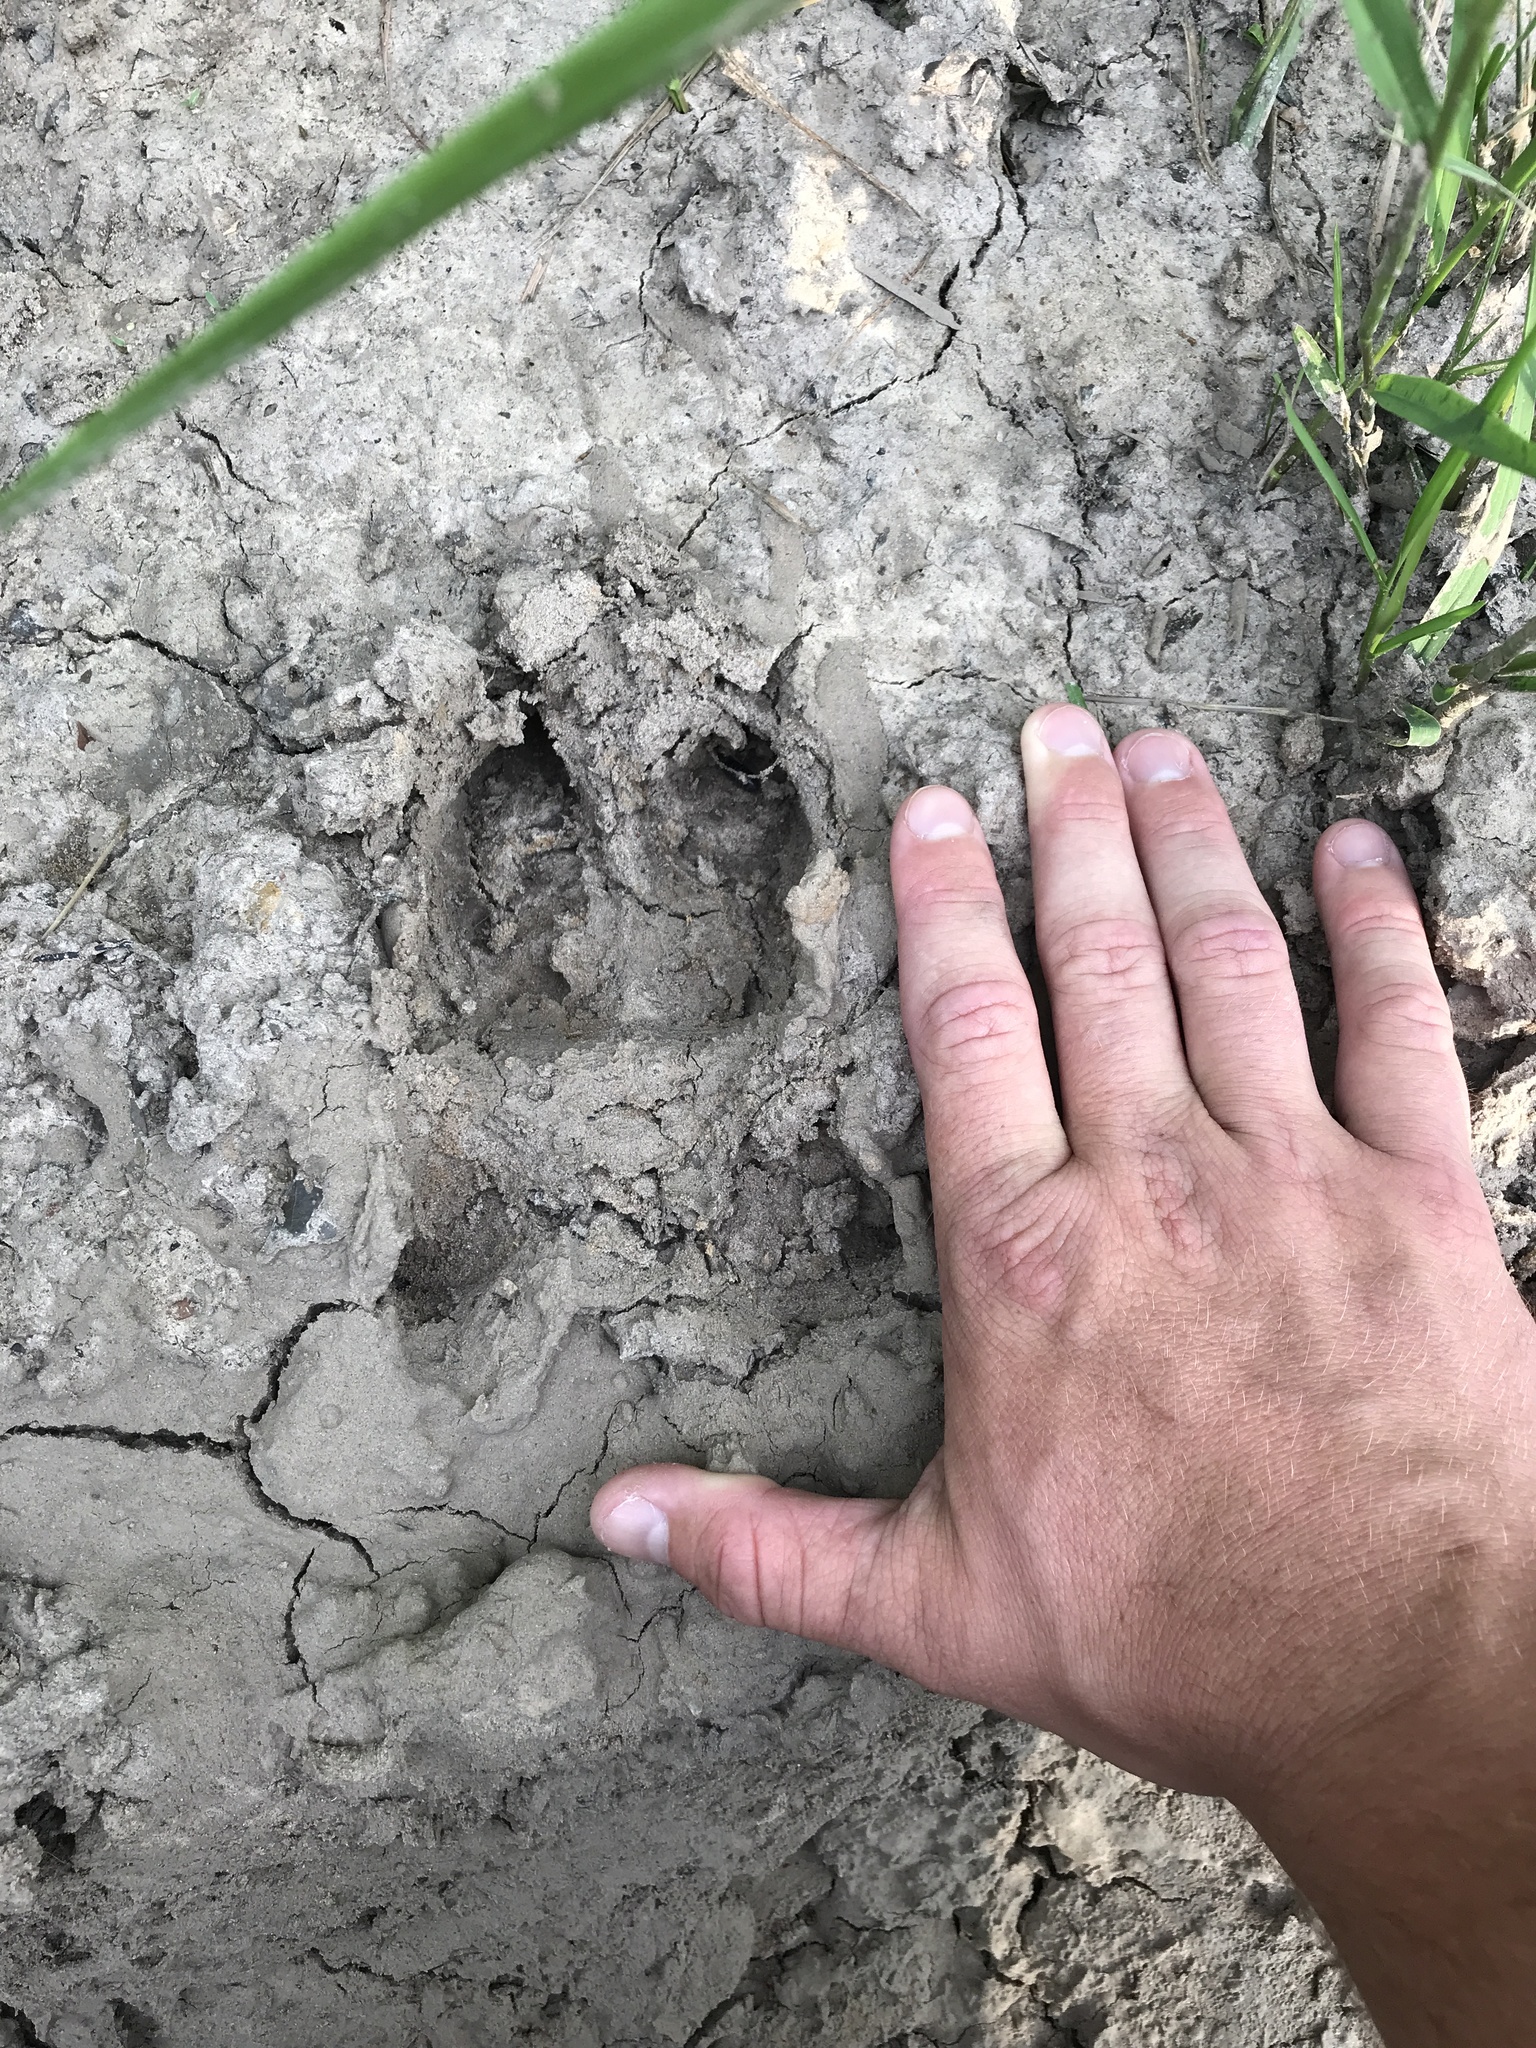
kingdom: Animalia
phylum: Chordata
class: Mammalia
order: Artiodactyla
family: Suidae
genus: Sus
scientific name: Sus scrofa
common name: Wild boar
